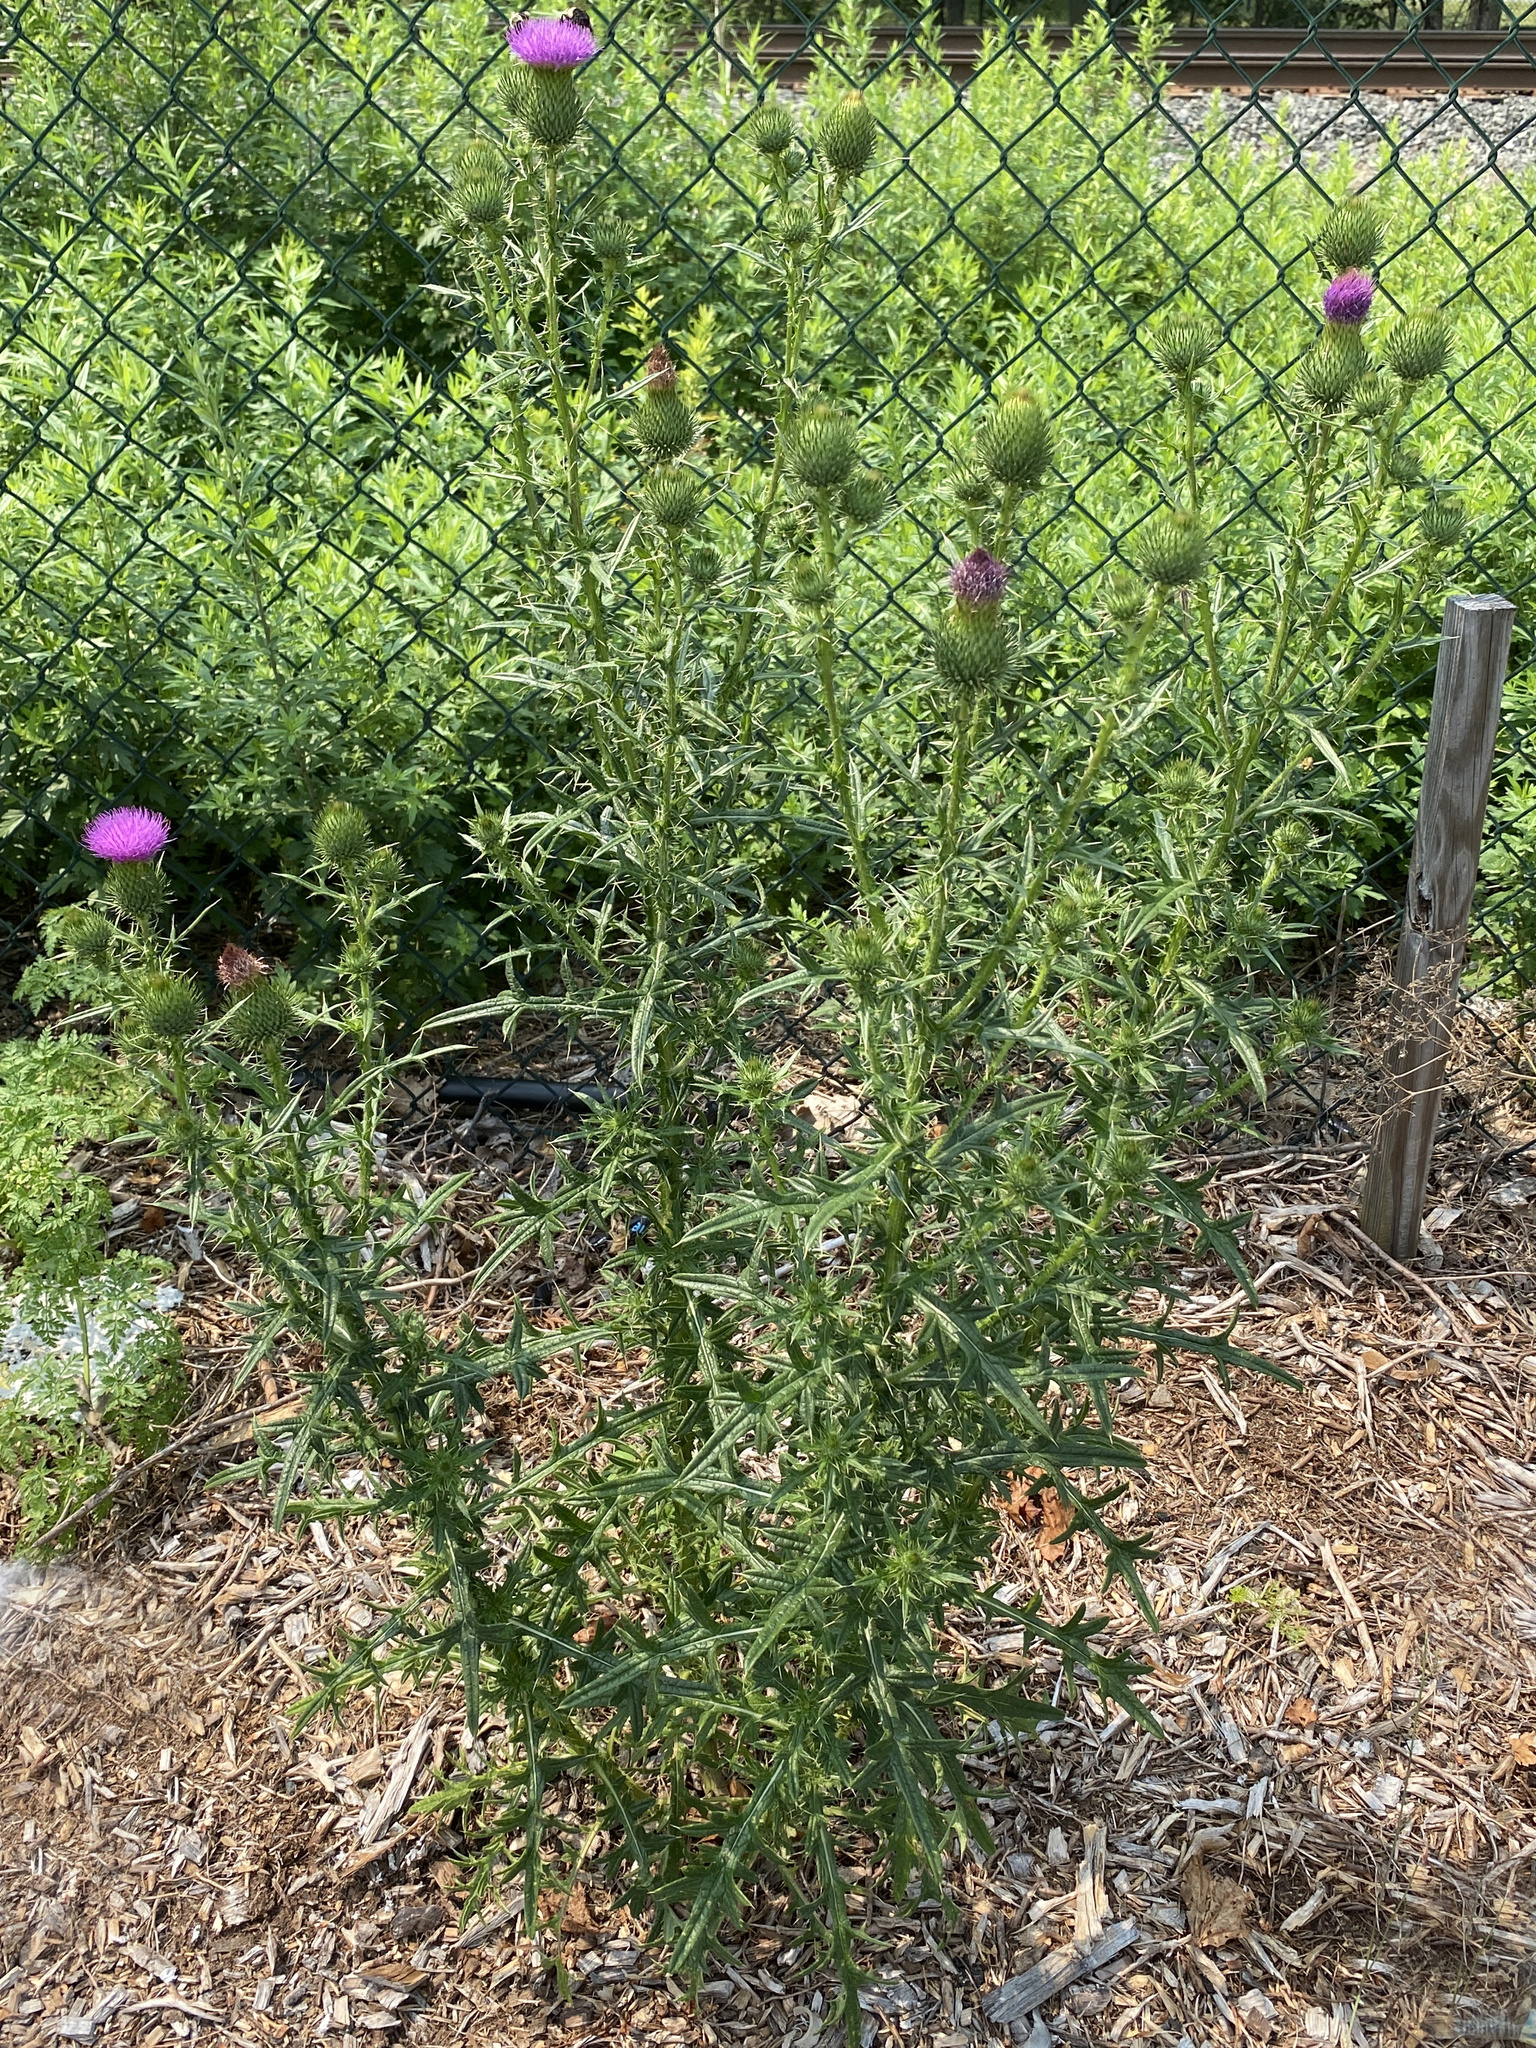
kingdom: Plantae
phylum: Tracheophyta
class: Magnoliopsida
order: Asterales
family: Asteraceae
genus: Cirsium
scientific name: Cirsium vulgare
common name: Bull thistle
